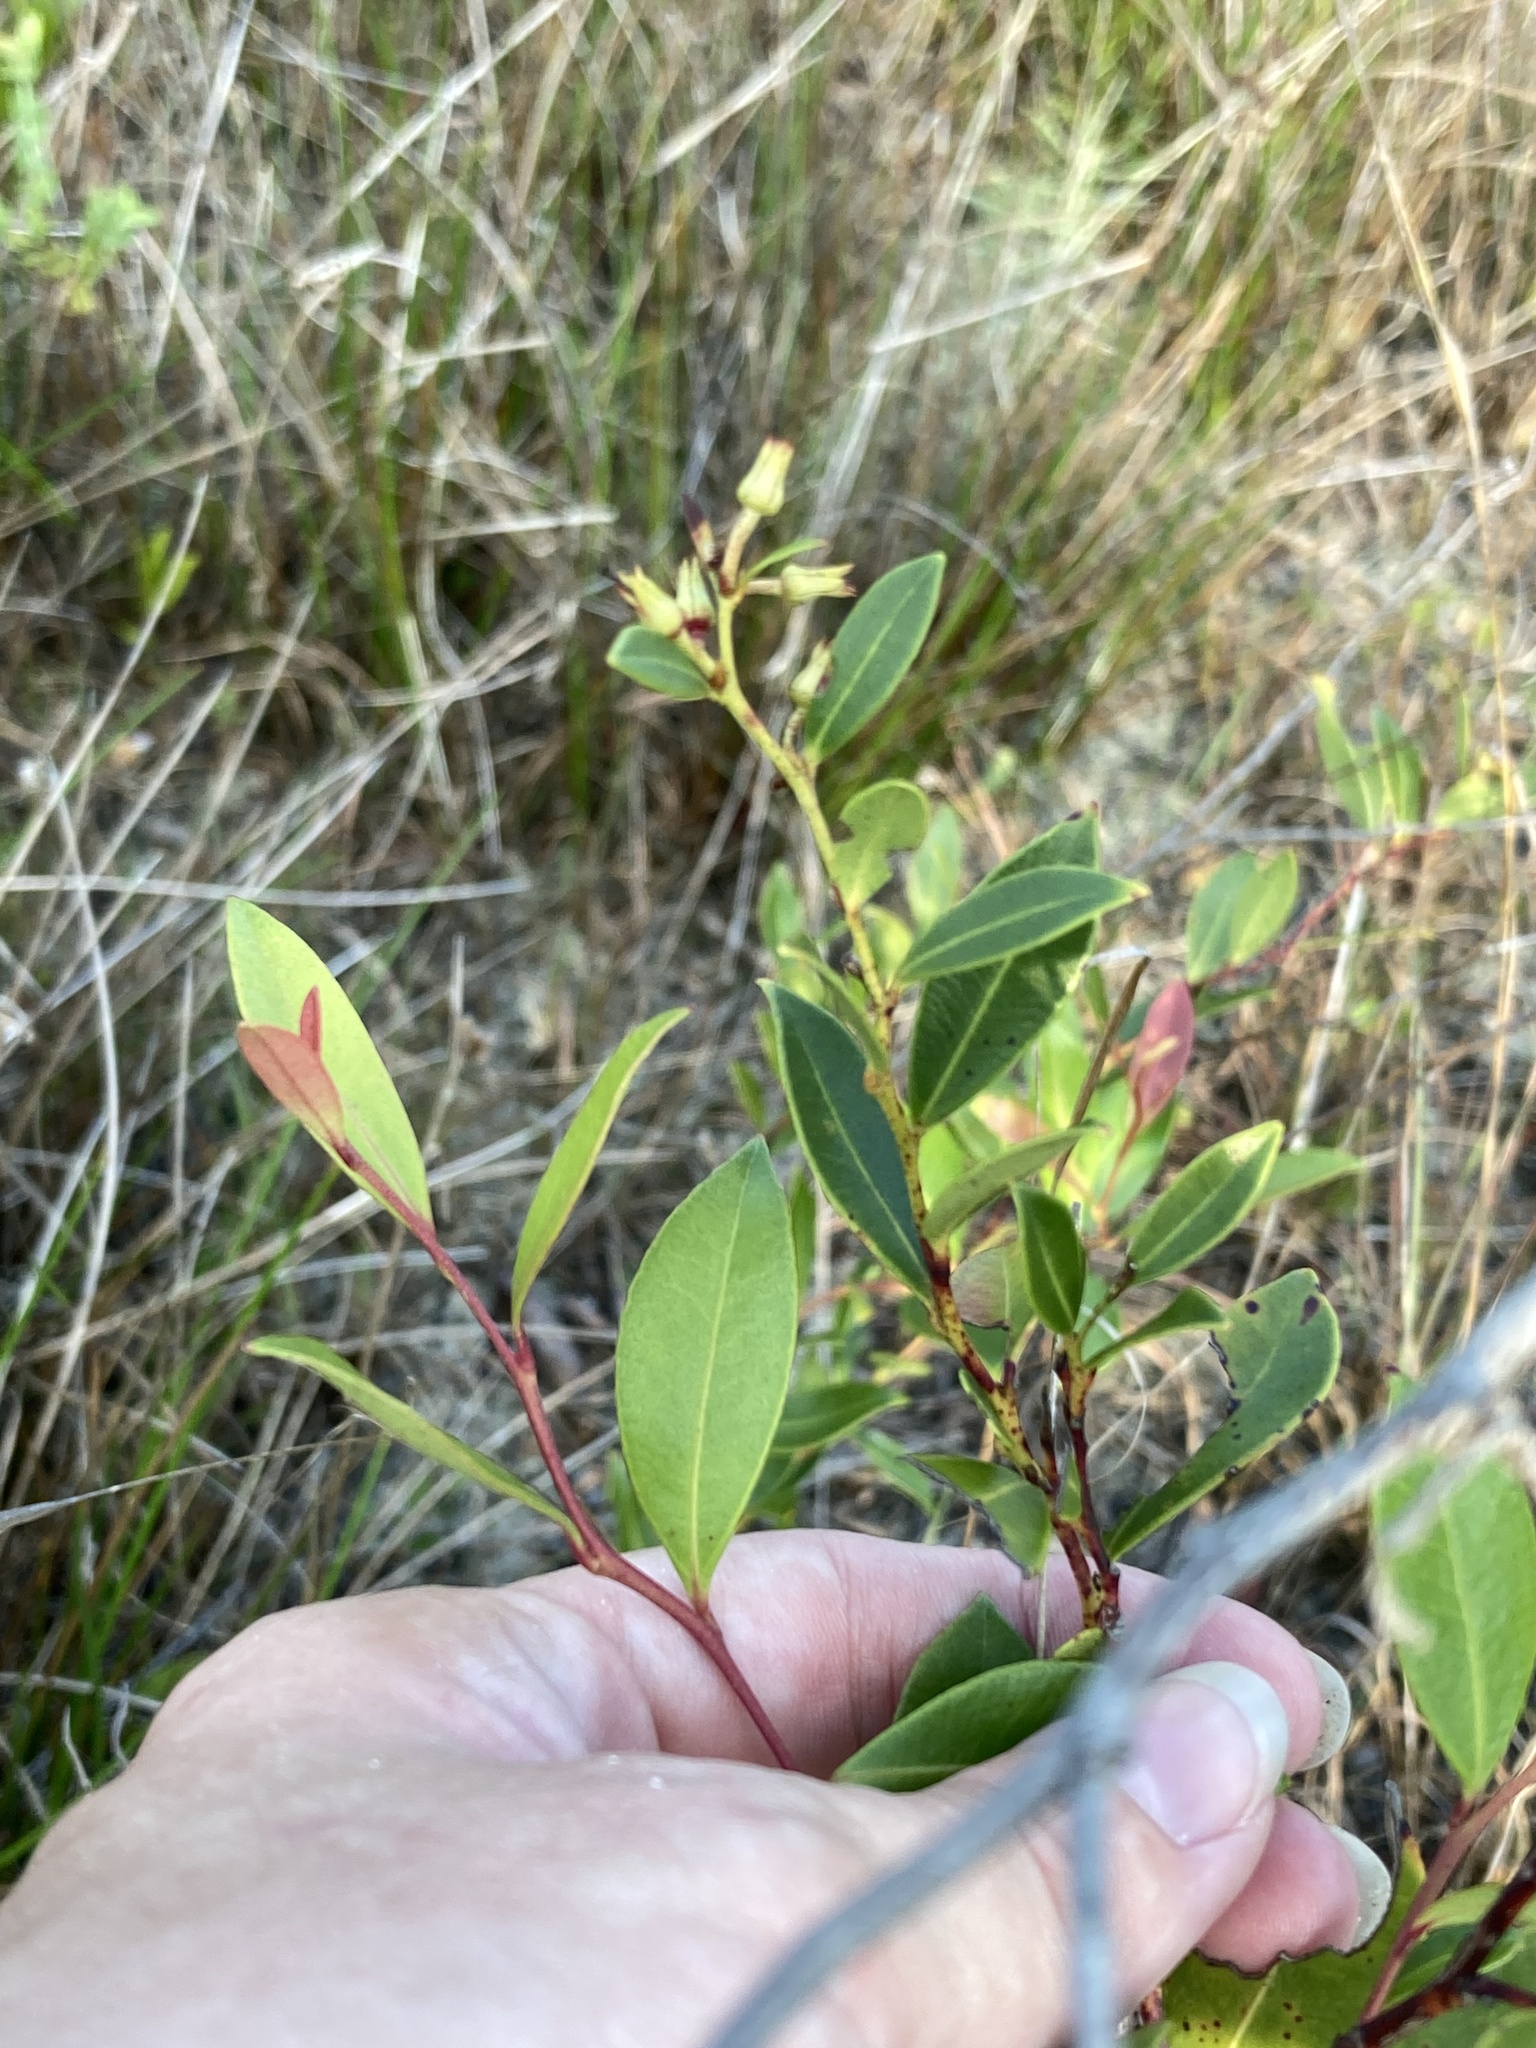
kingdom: Plantae
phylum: Tracheophyta
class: Magnoliopsida
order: Ericales
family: Ericaceae
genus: Lyonia
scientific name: Lyonia lucida
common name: Fetterbush
